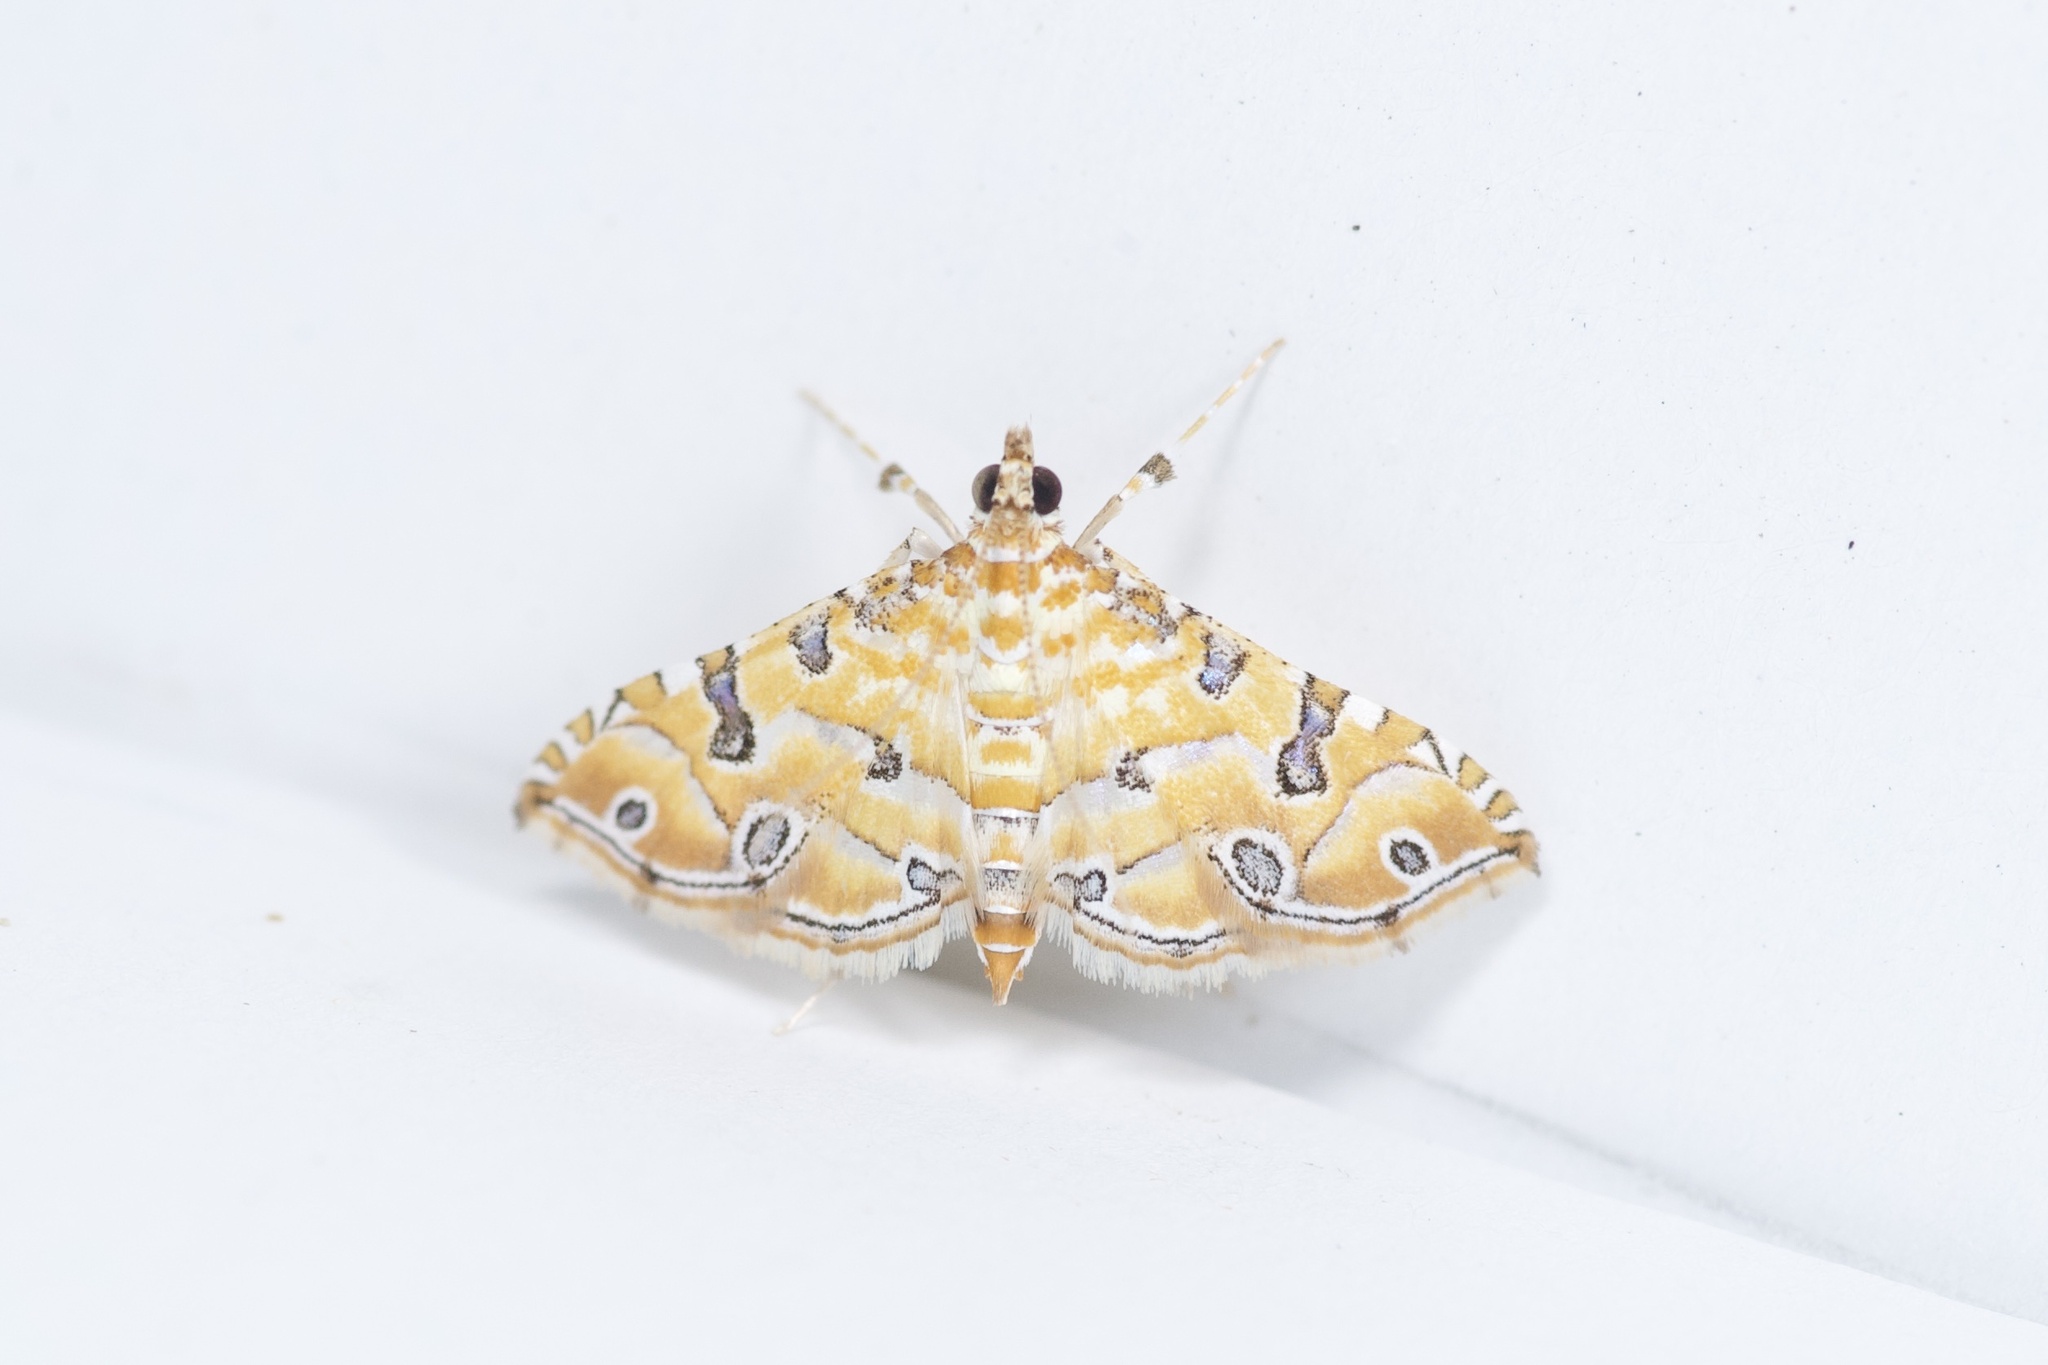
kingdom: Animalia
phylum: Arthropoda
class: Insecta
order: Lepidoptera
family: Crambidae
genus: Ommatospila
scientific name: Ommatospila narcaeusalis
